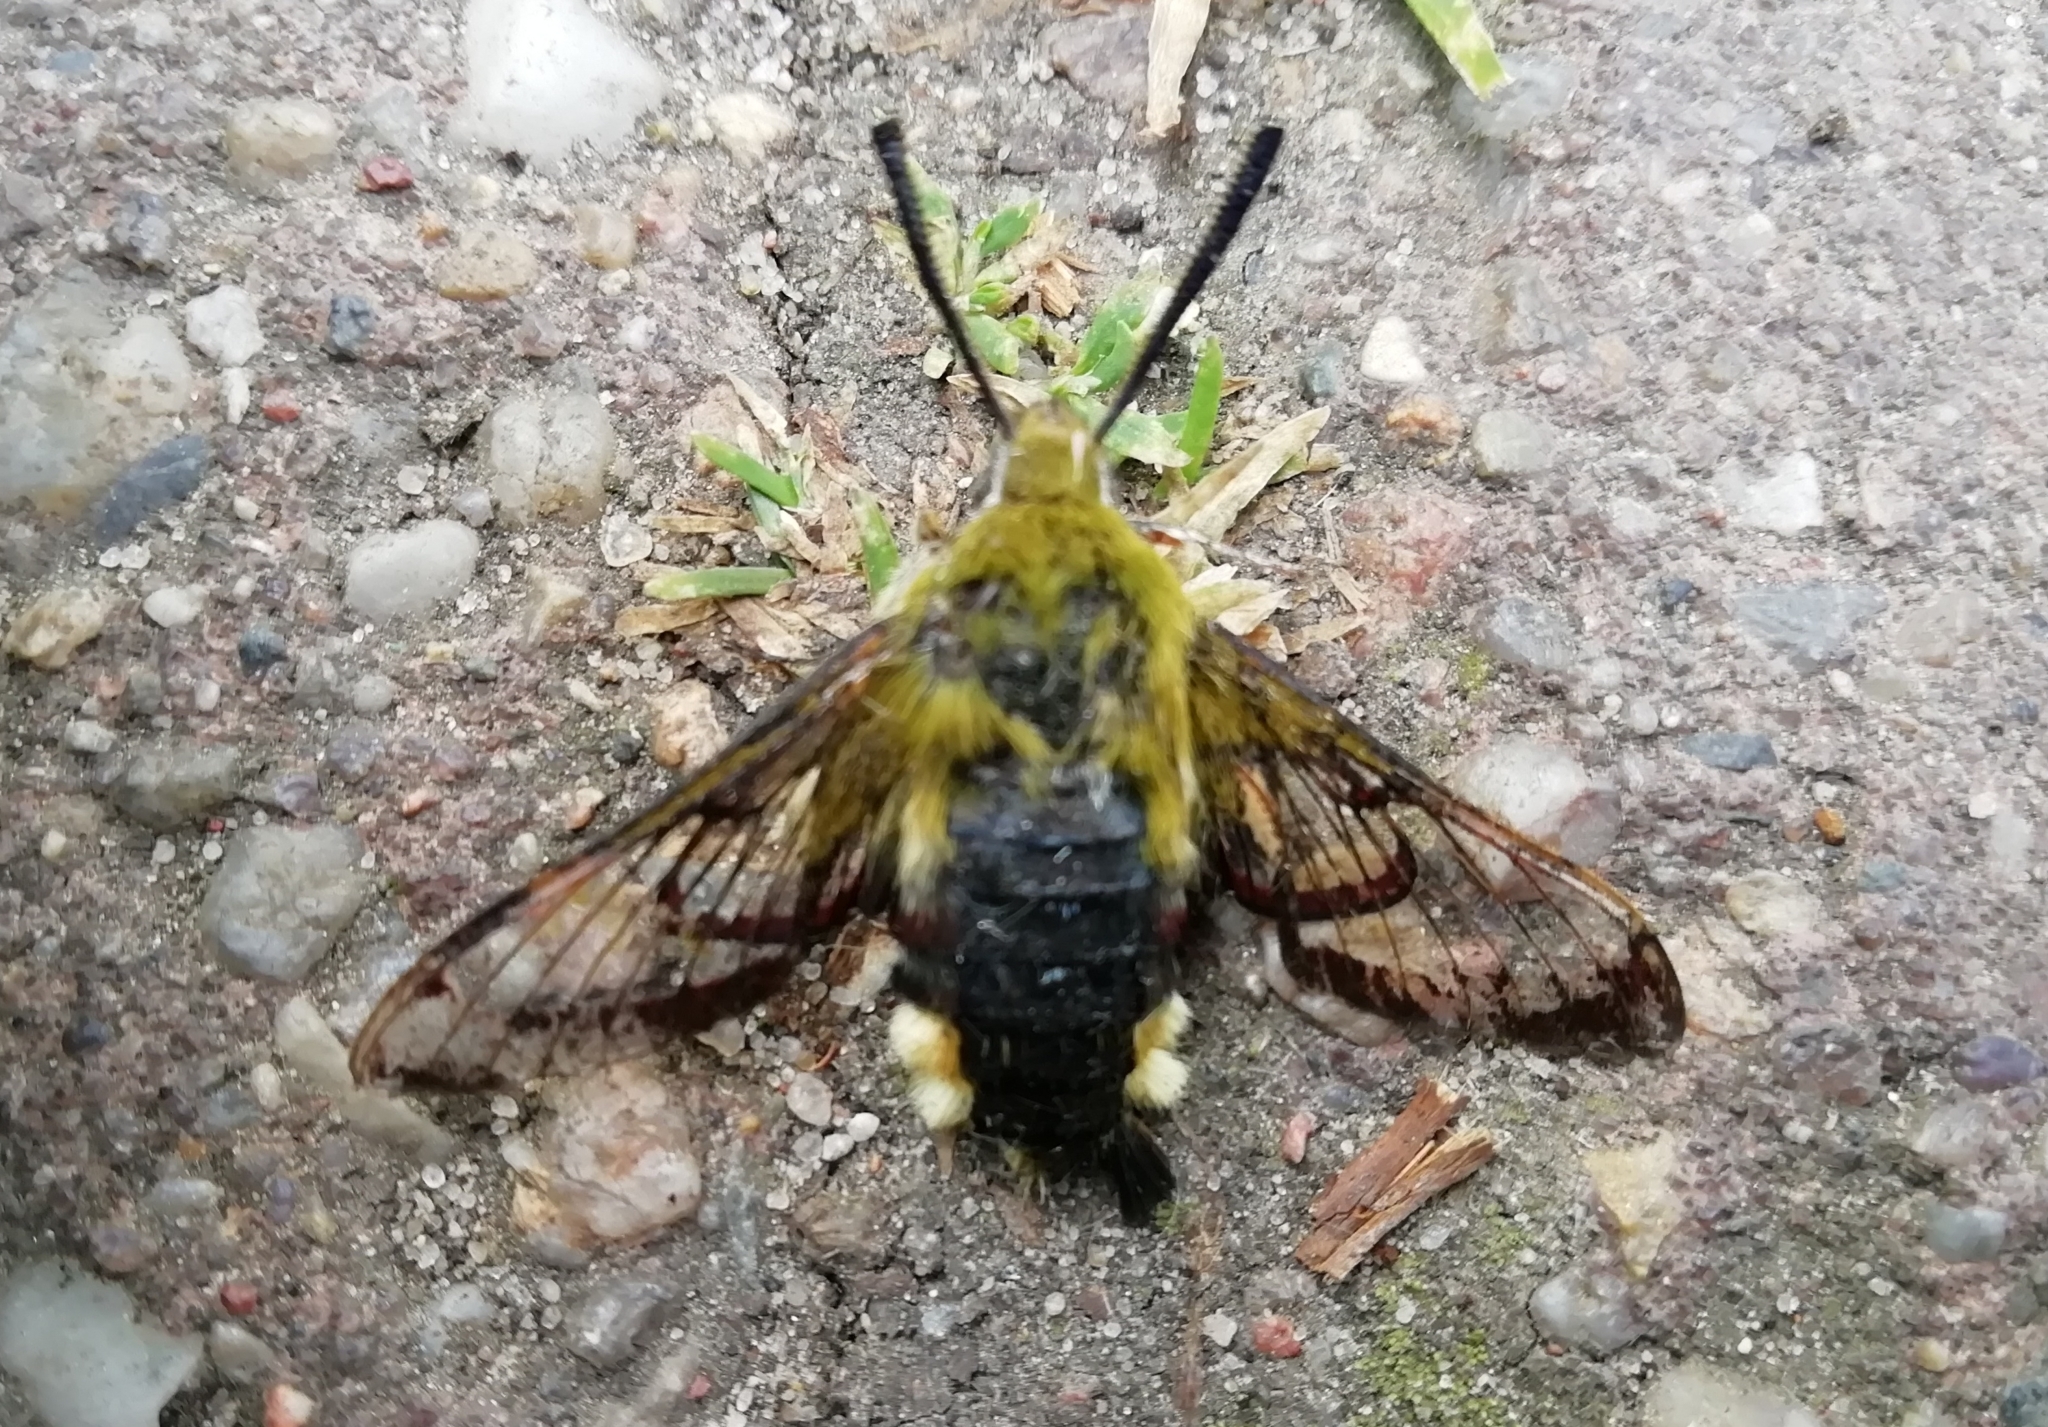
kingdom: Animalia
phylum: Arthropoda
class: Insecta
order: Lepidoptera
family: Sphingidae
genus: Hemaris
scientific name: Hemaris fuciformis
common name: Broad-bordered bee hawk-moth
